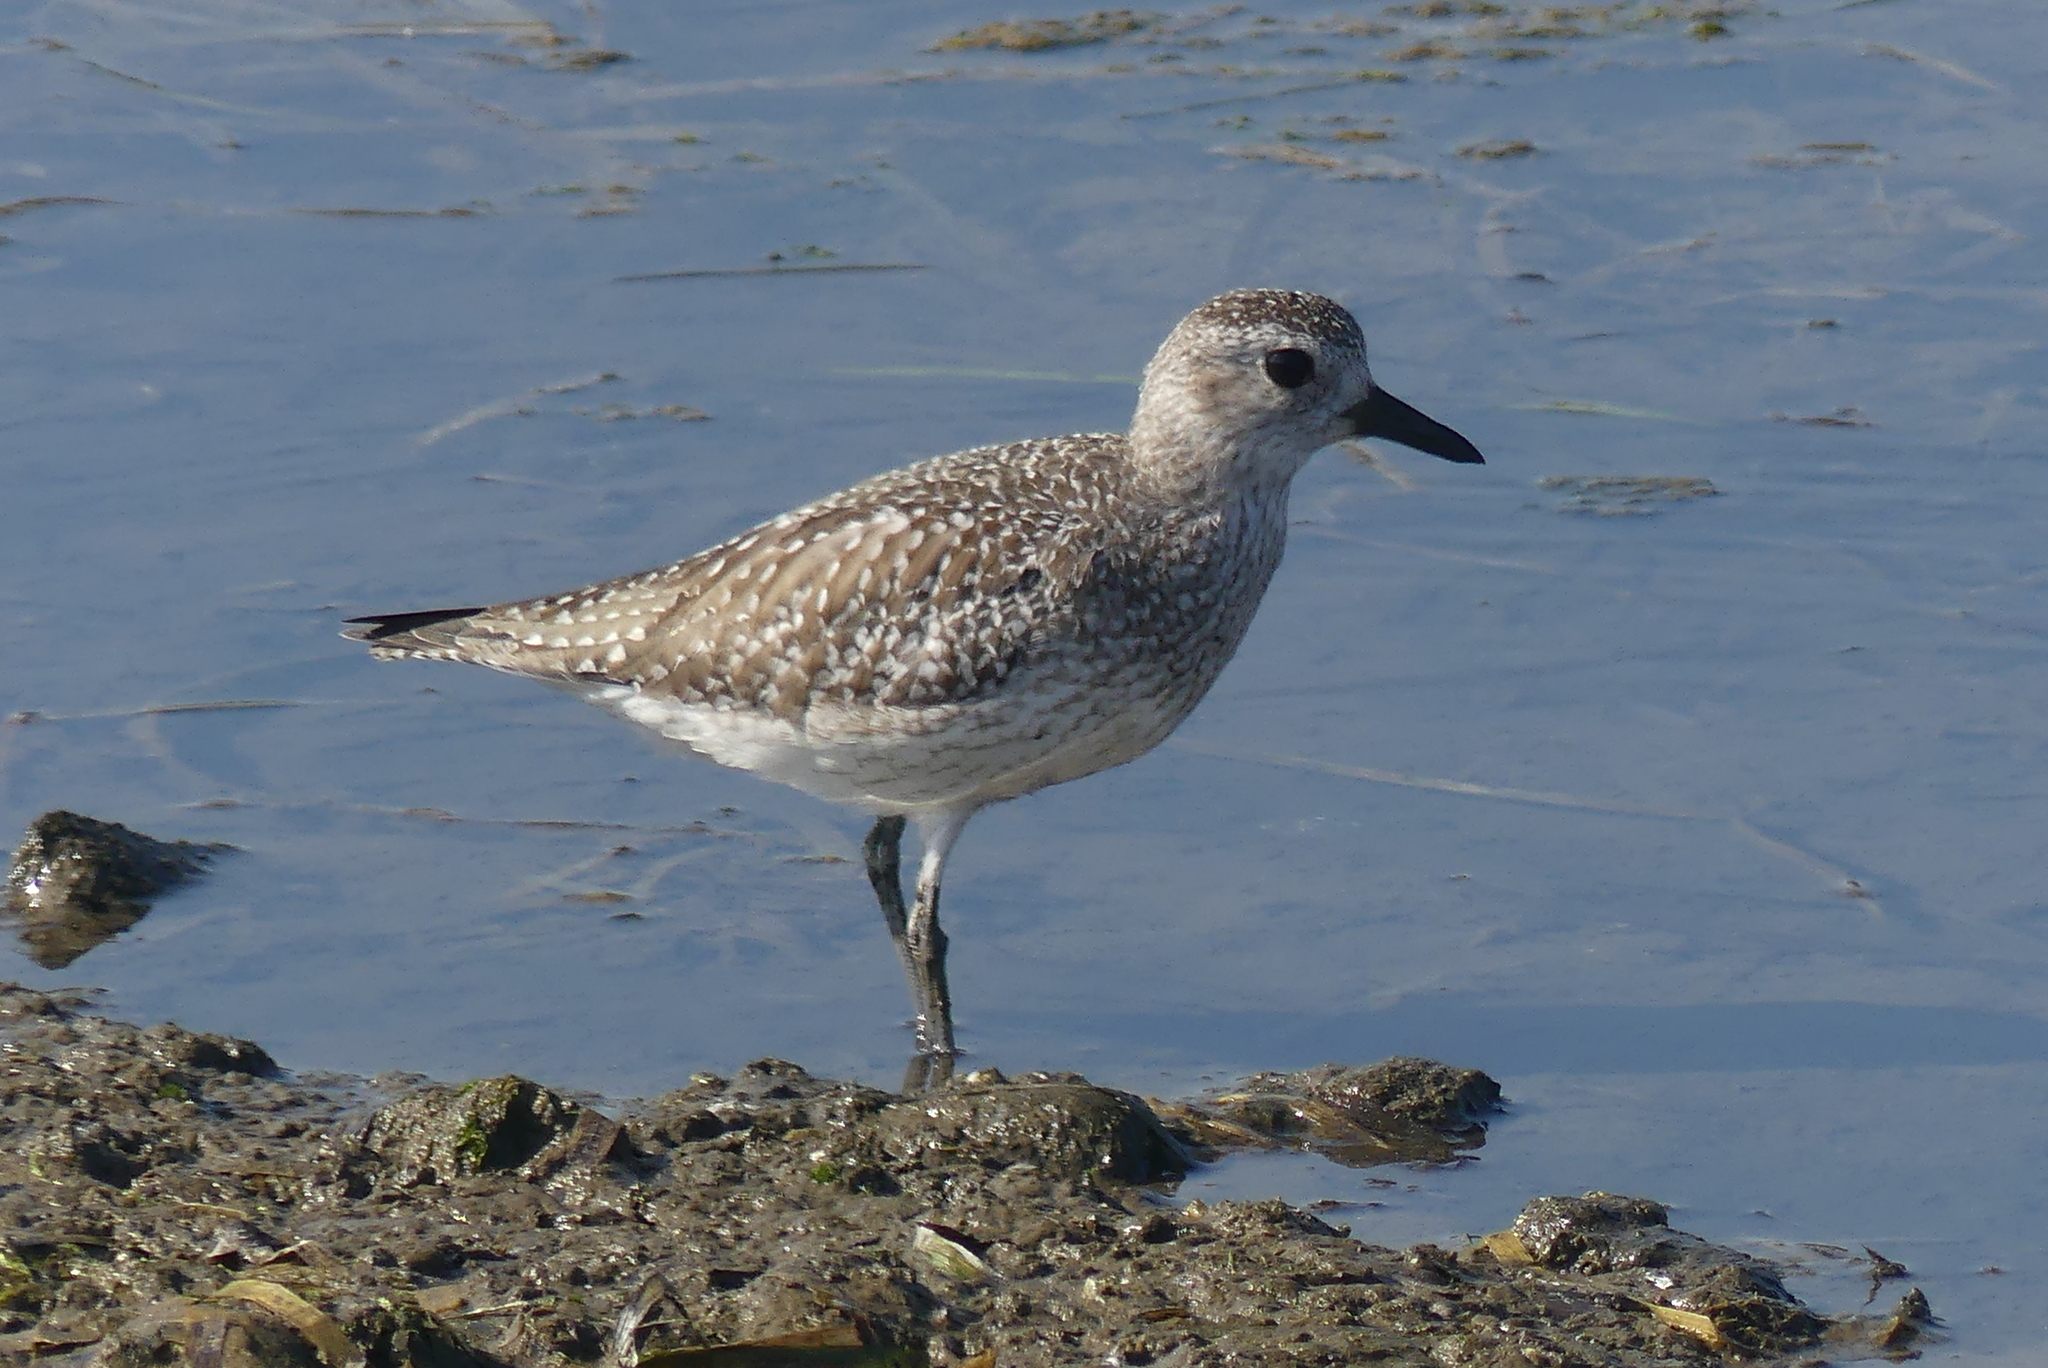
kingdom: Animalia
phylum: Chordata
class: Aves
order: Charadriiformes
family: Charadriidae
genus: Pluvialis
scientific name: Pluvialis squatarola
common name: Grey plover
